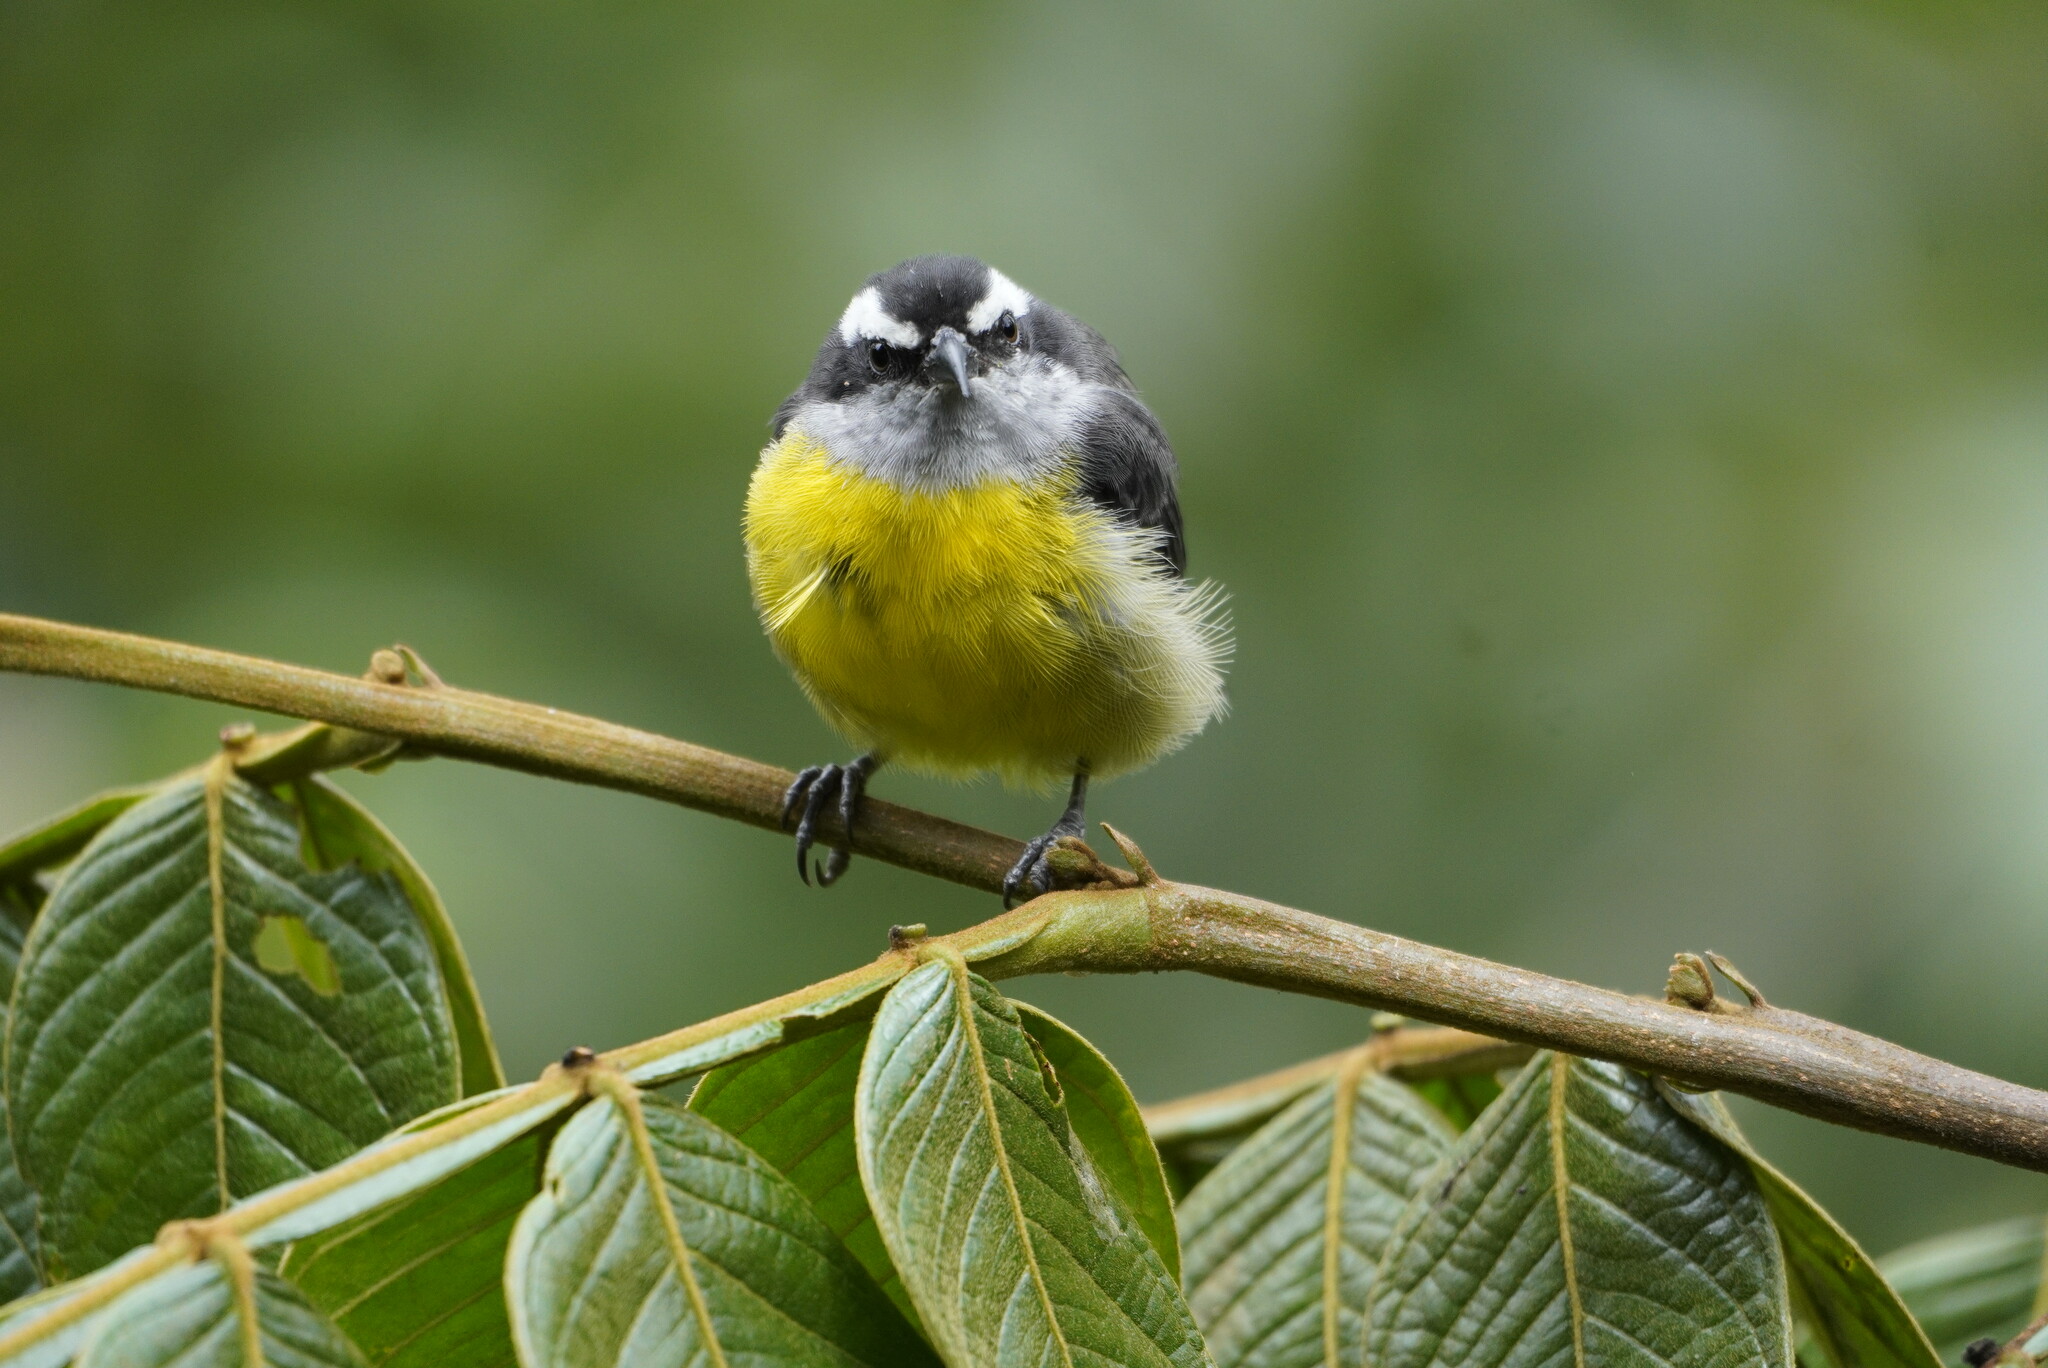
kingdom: Animalia
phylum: Chordata
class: Aves
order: Passeriformes
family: Thraupidae
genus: Coereba
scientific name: Coereba flaveola
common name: Bananaquit
